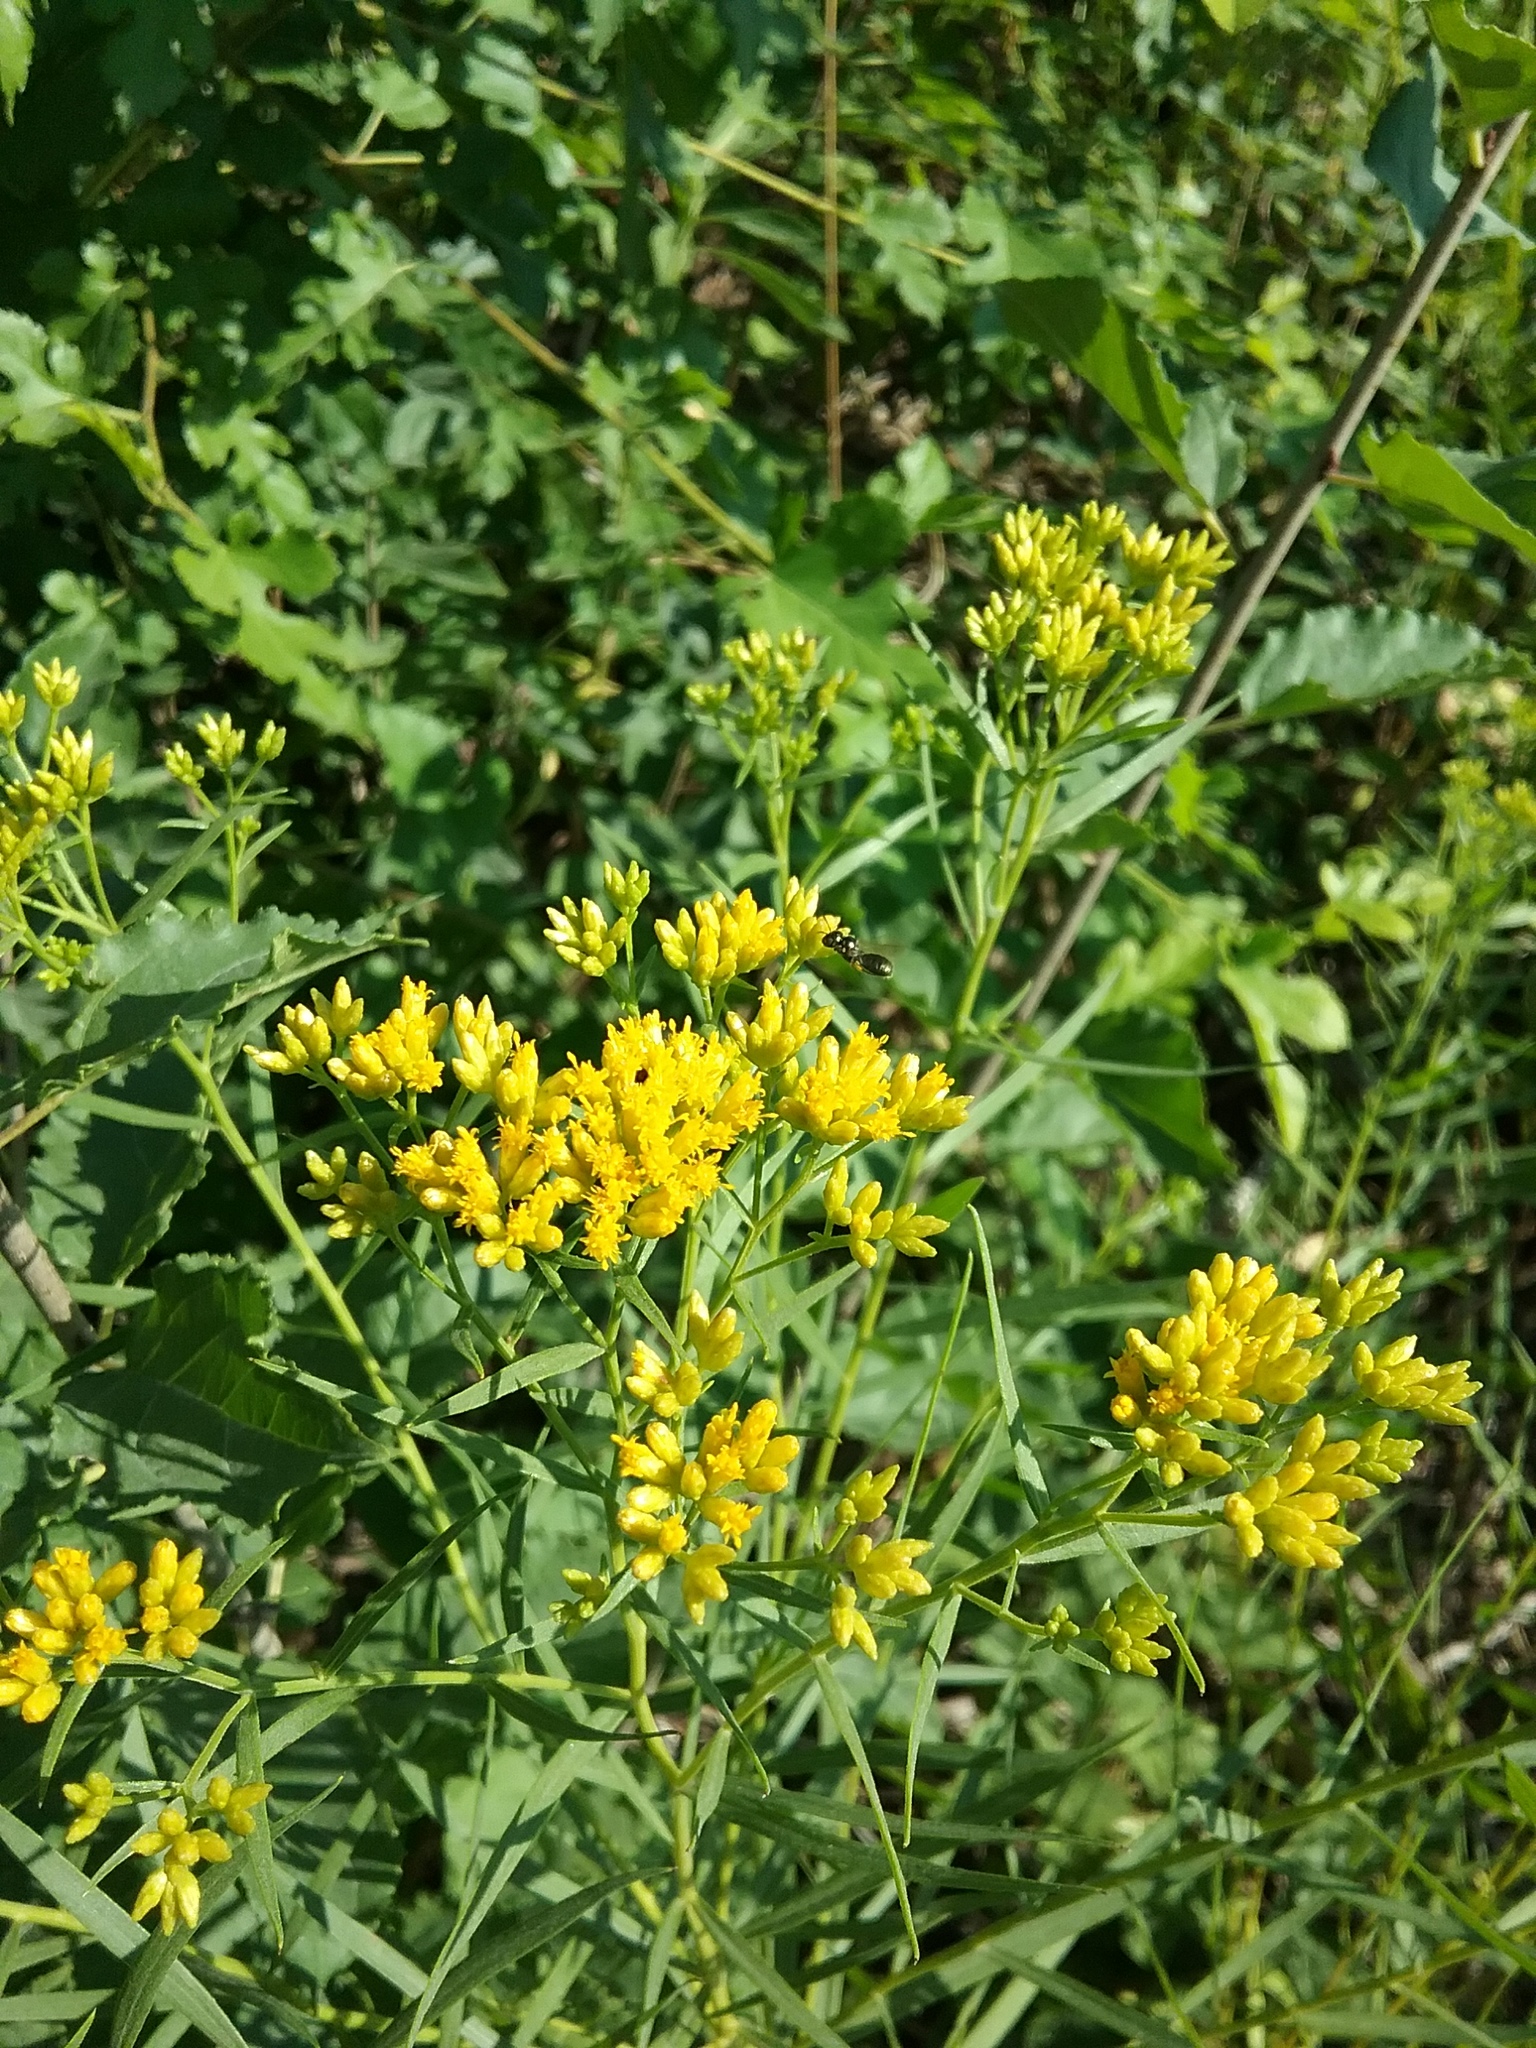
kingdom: Plantae
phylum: Tracheophyta
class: Magnoliopsida
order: Asterales
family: Asteraceae
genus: Euthamia
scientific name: Euthamia graminifolia
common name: Common goldentop
